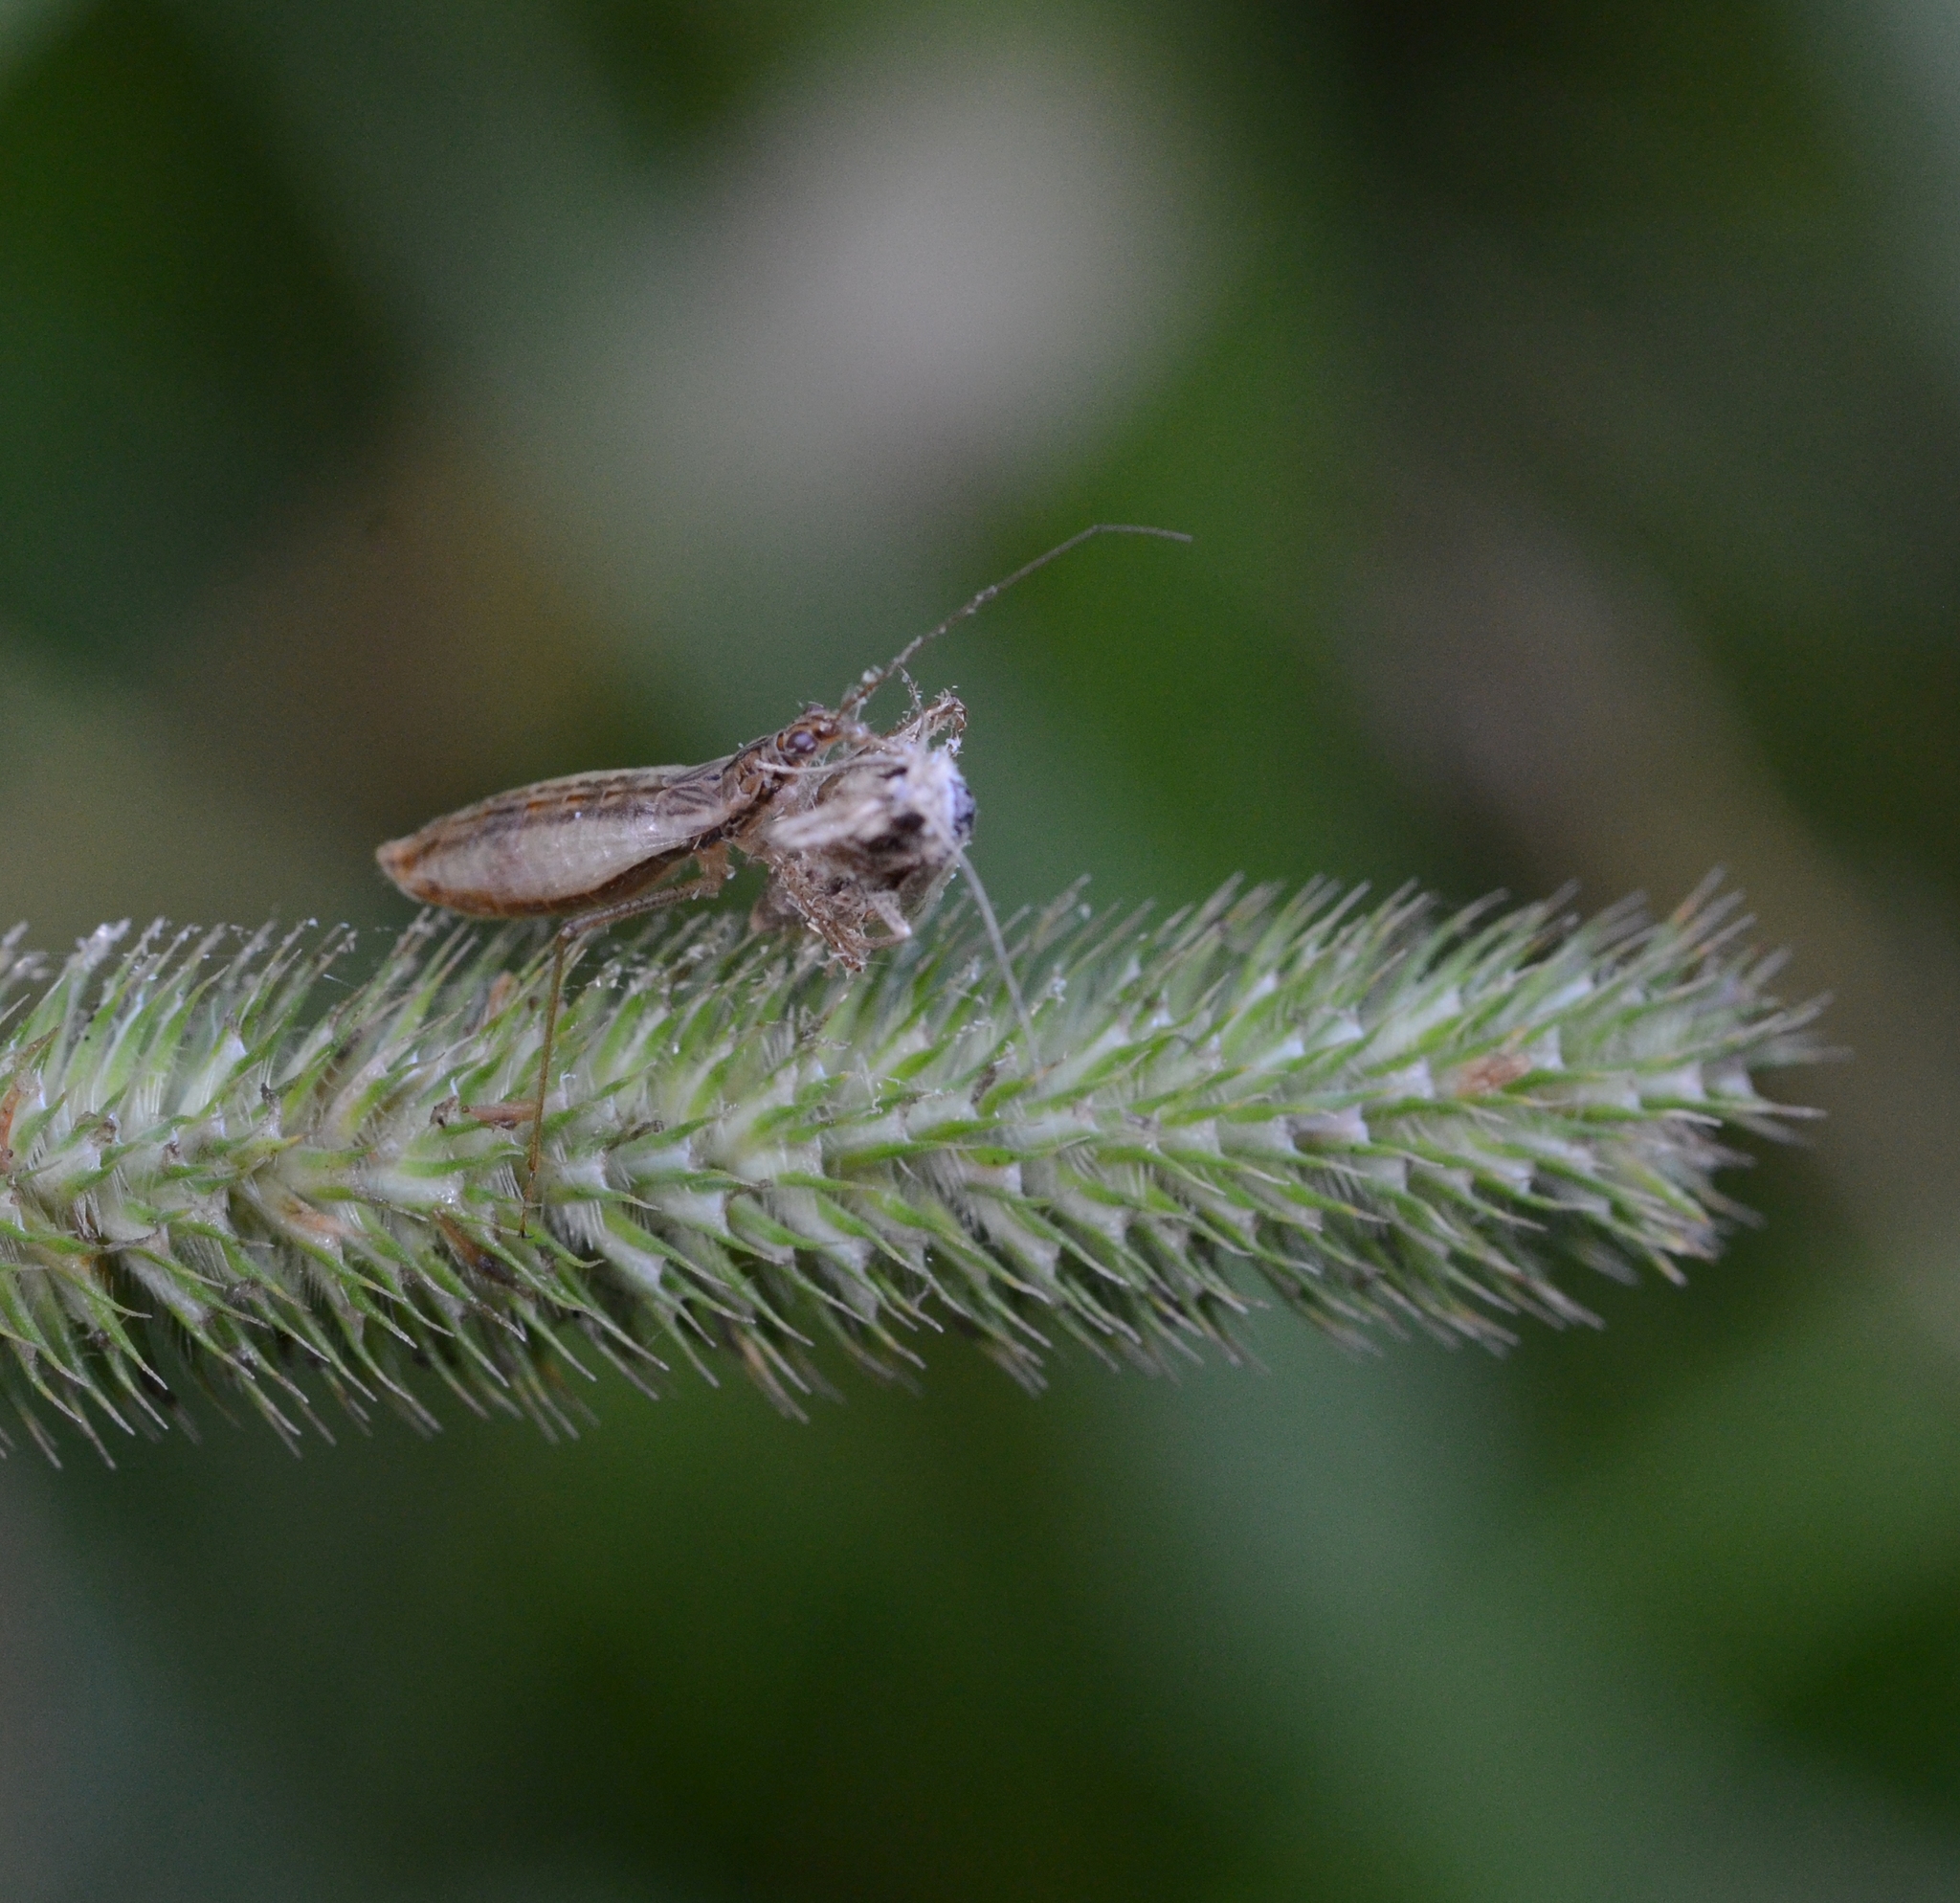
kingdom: Animalia
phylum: Arthropoda
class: Insecta
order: Hemiptera
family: Nabidae
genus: Nabis
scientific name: Nabis limbatus
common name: Marsh damselbug
